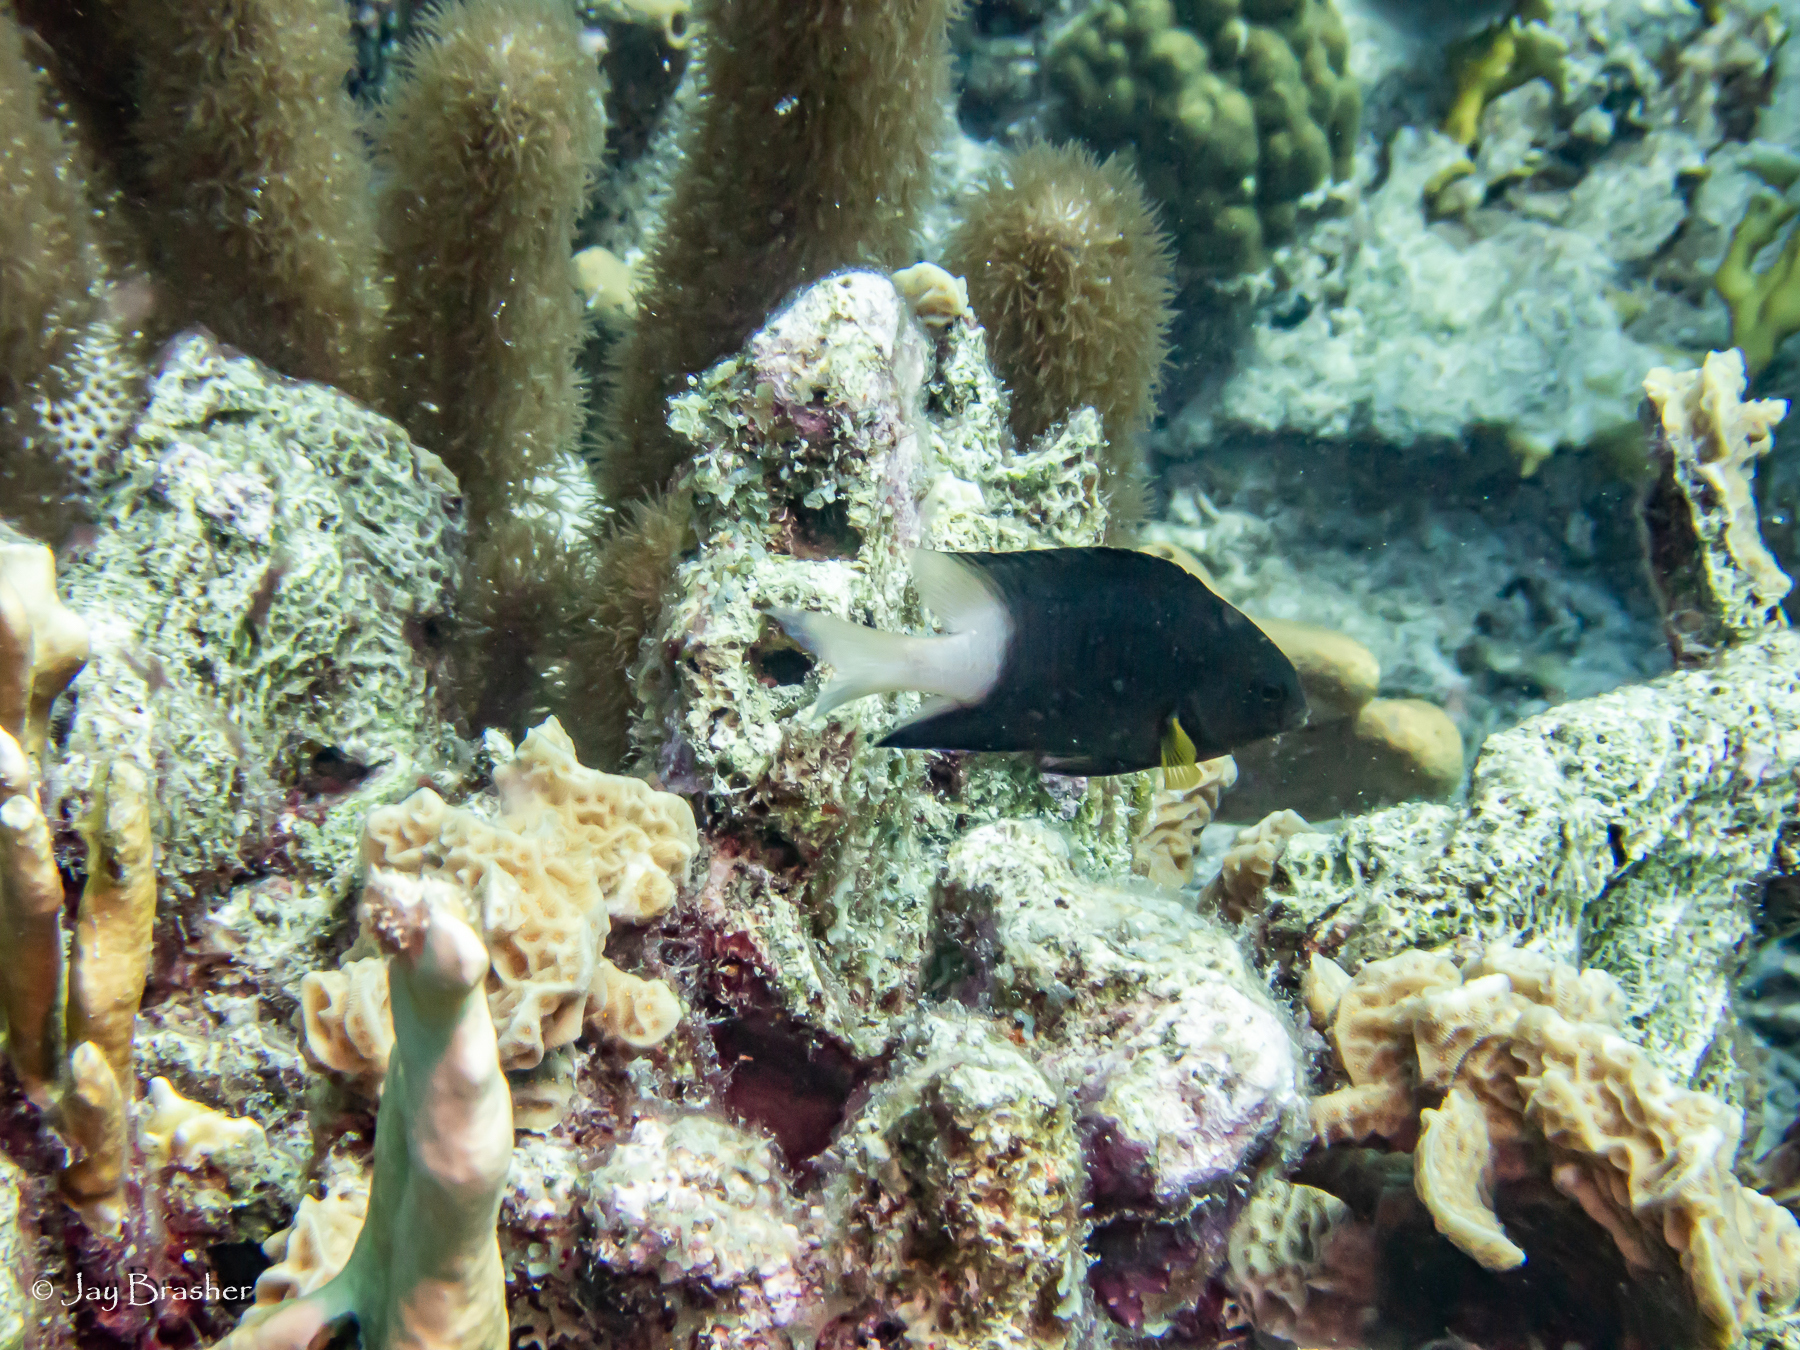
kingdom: Animalia
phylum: Chordata
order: Perciformes
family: Pomacentridae
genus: Stegastes
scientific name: Stegastes partitus
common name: Bicolor damselfish
